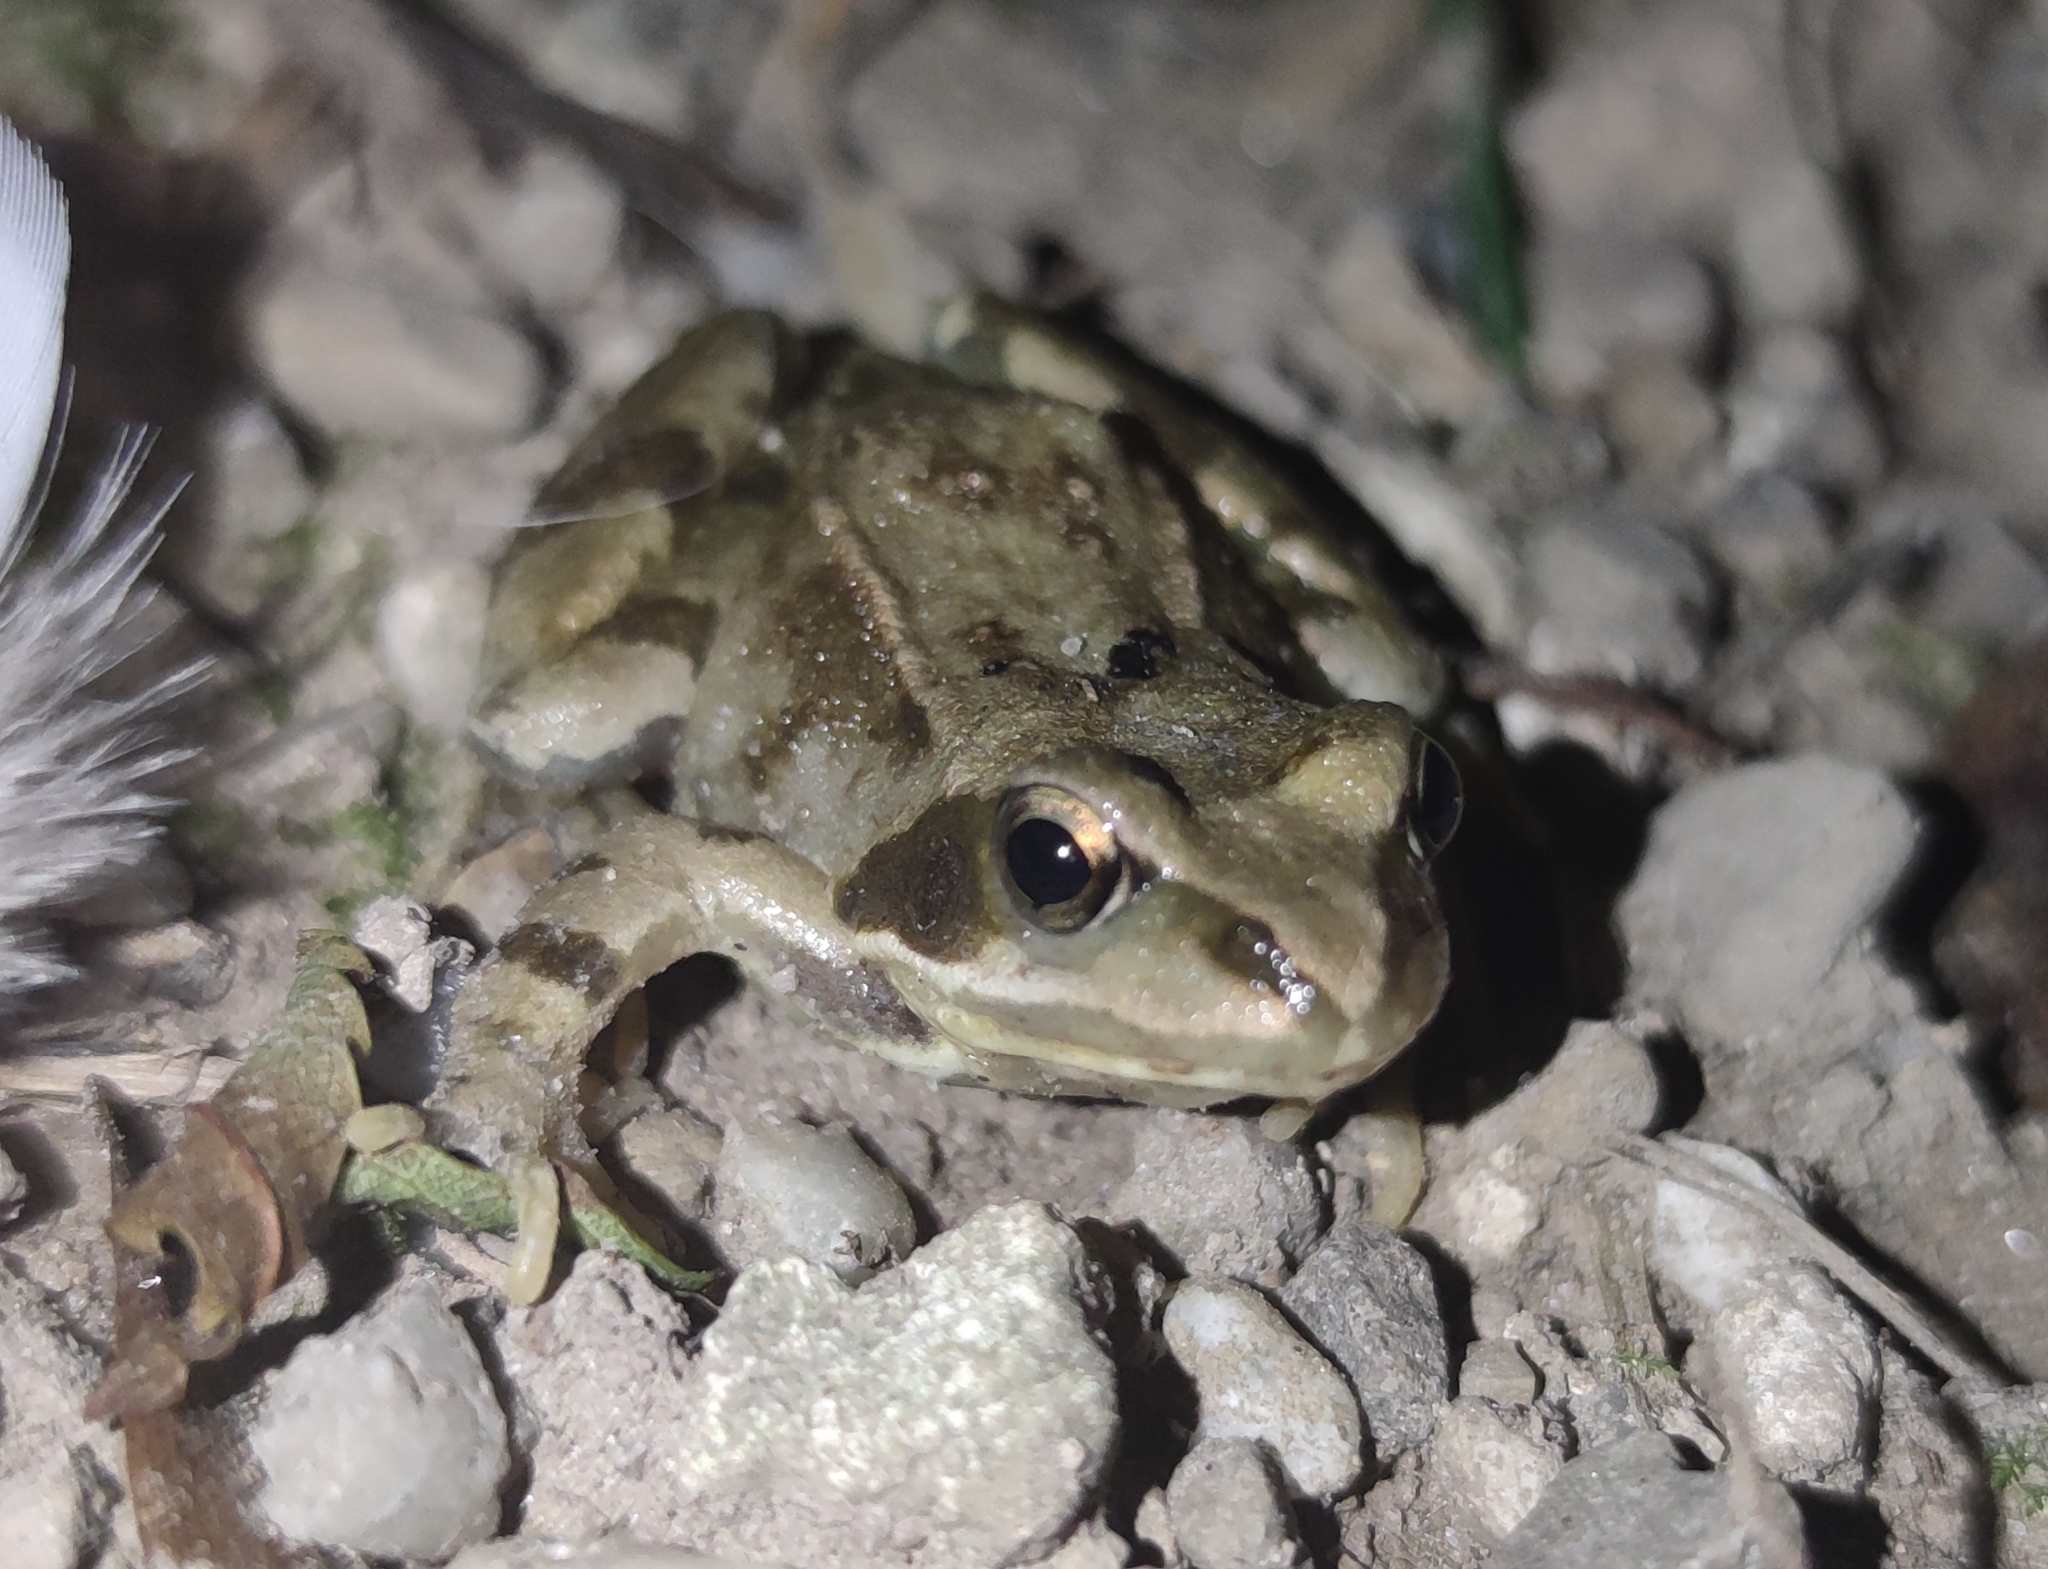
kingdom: Animalia
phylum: Chordata
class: Amphibia
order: Anura
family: Ranidae
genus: Rana
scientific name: Rana temporaria
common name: Common frog
